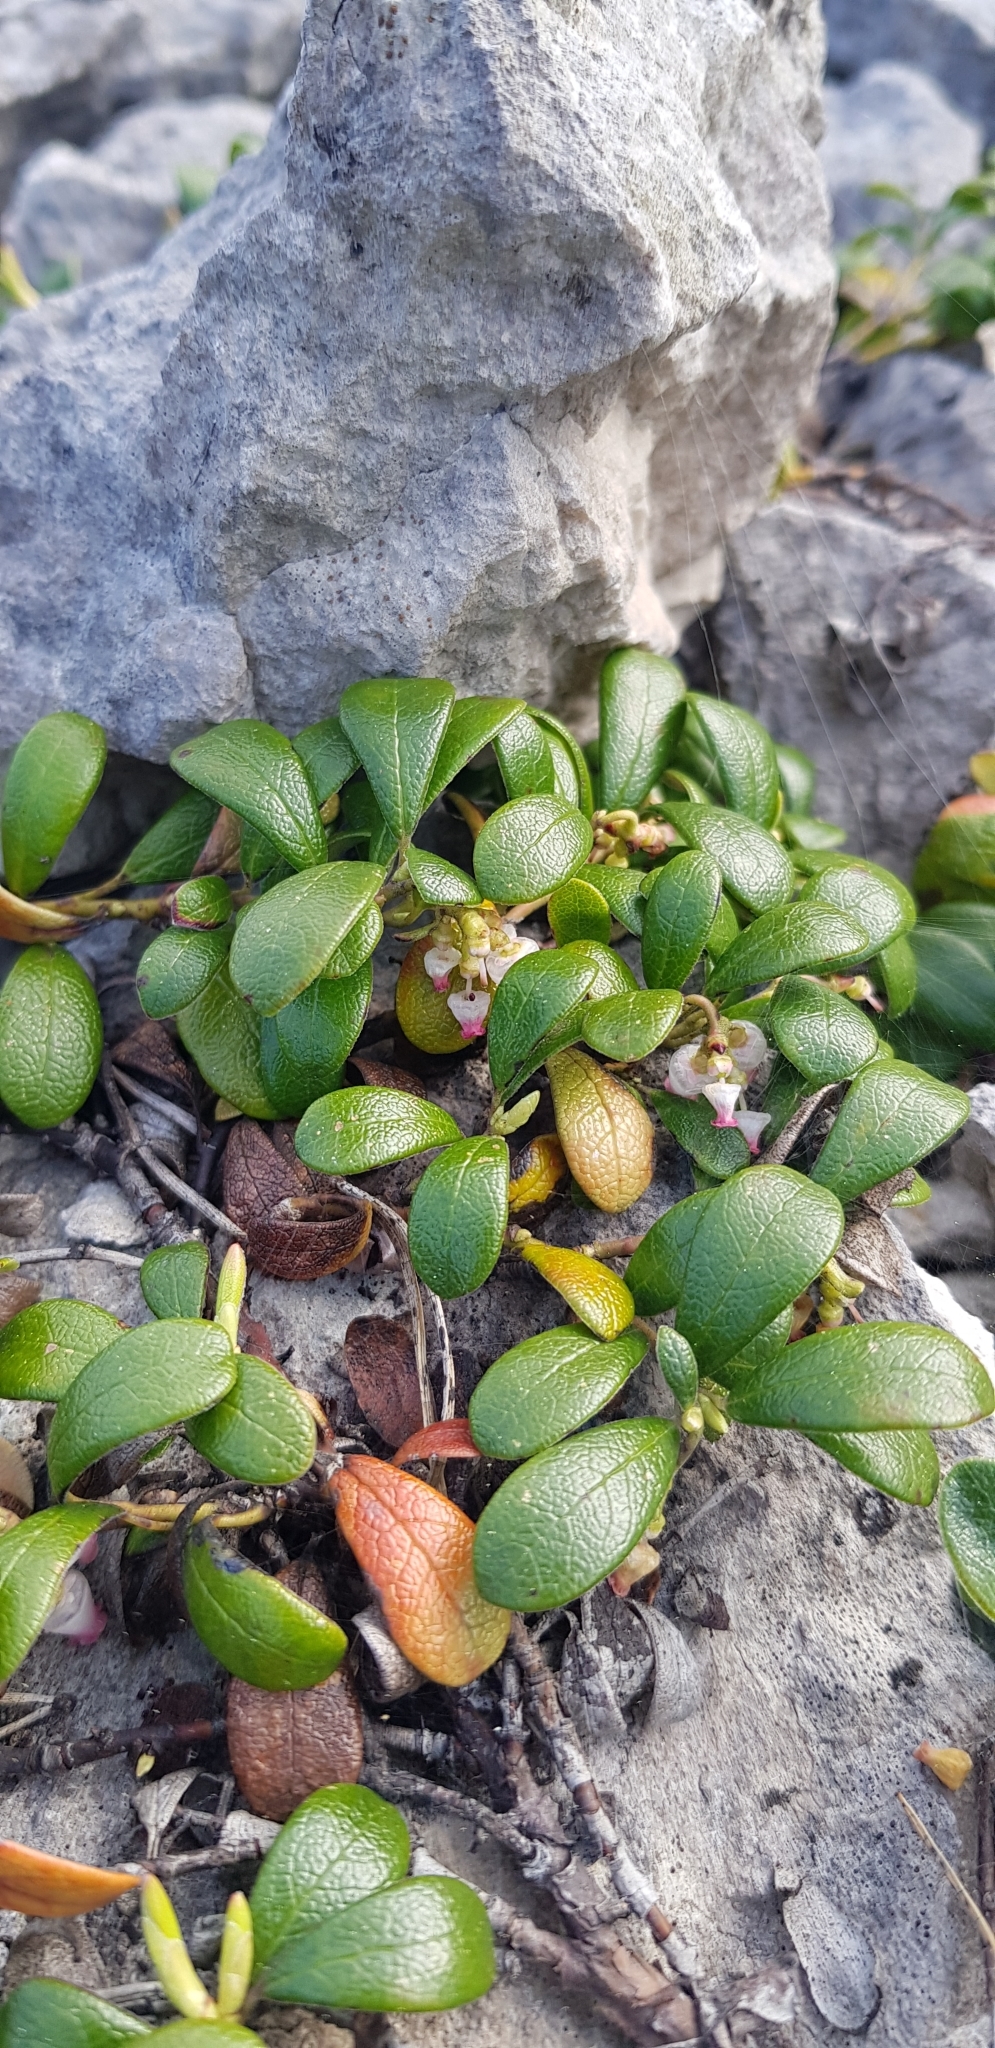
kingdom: Plantae
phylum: Tracheophyta
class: Magnoliopsida
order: Ericales
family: Ericaceae
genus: Arctostaphylos
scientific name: Arctostaphylos uva-ursi
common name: Bearberry
